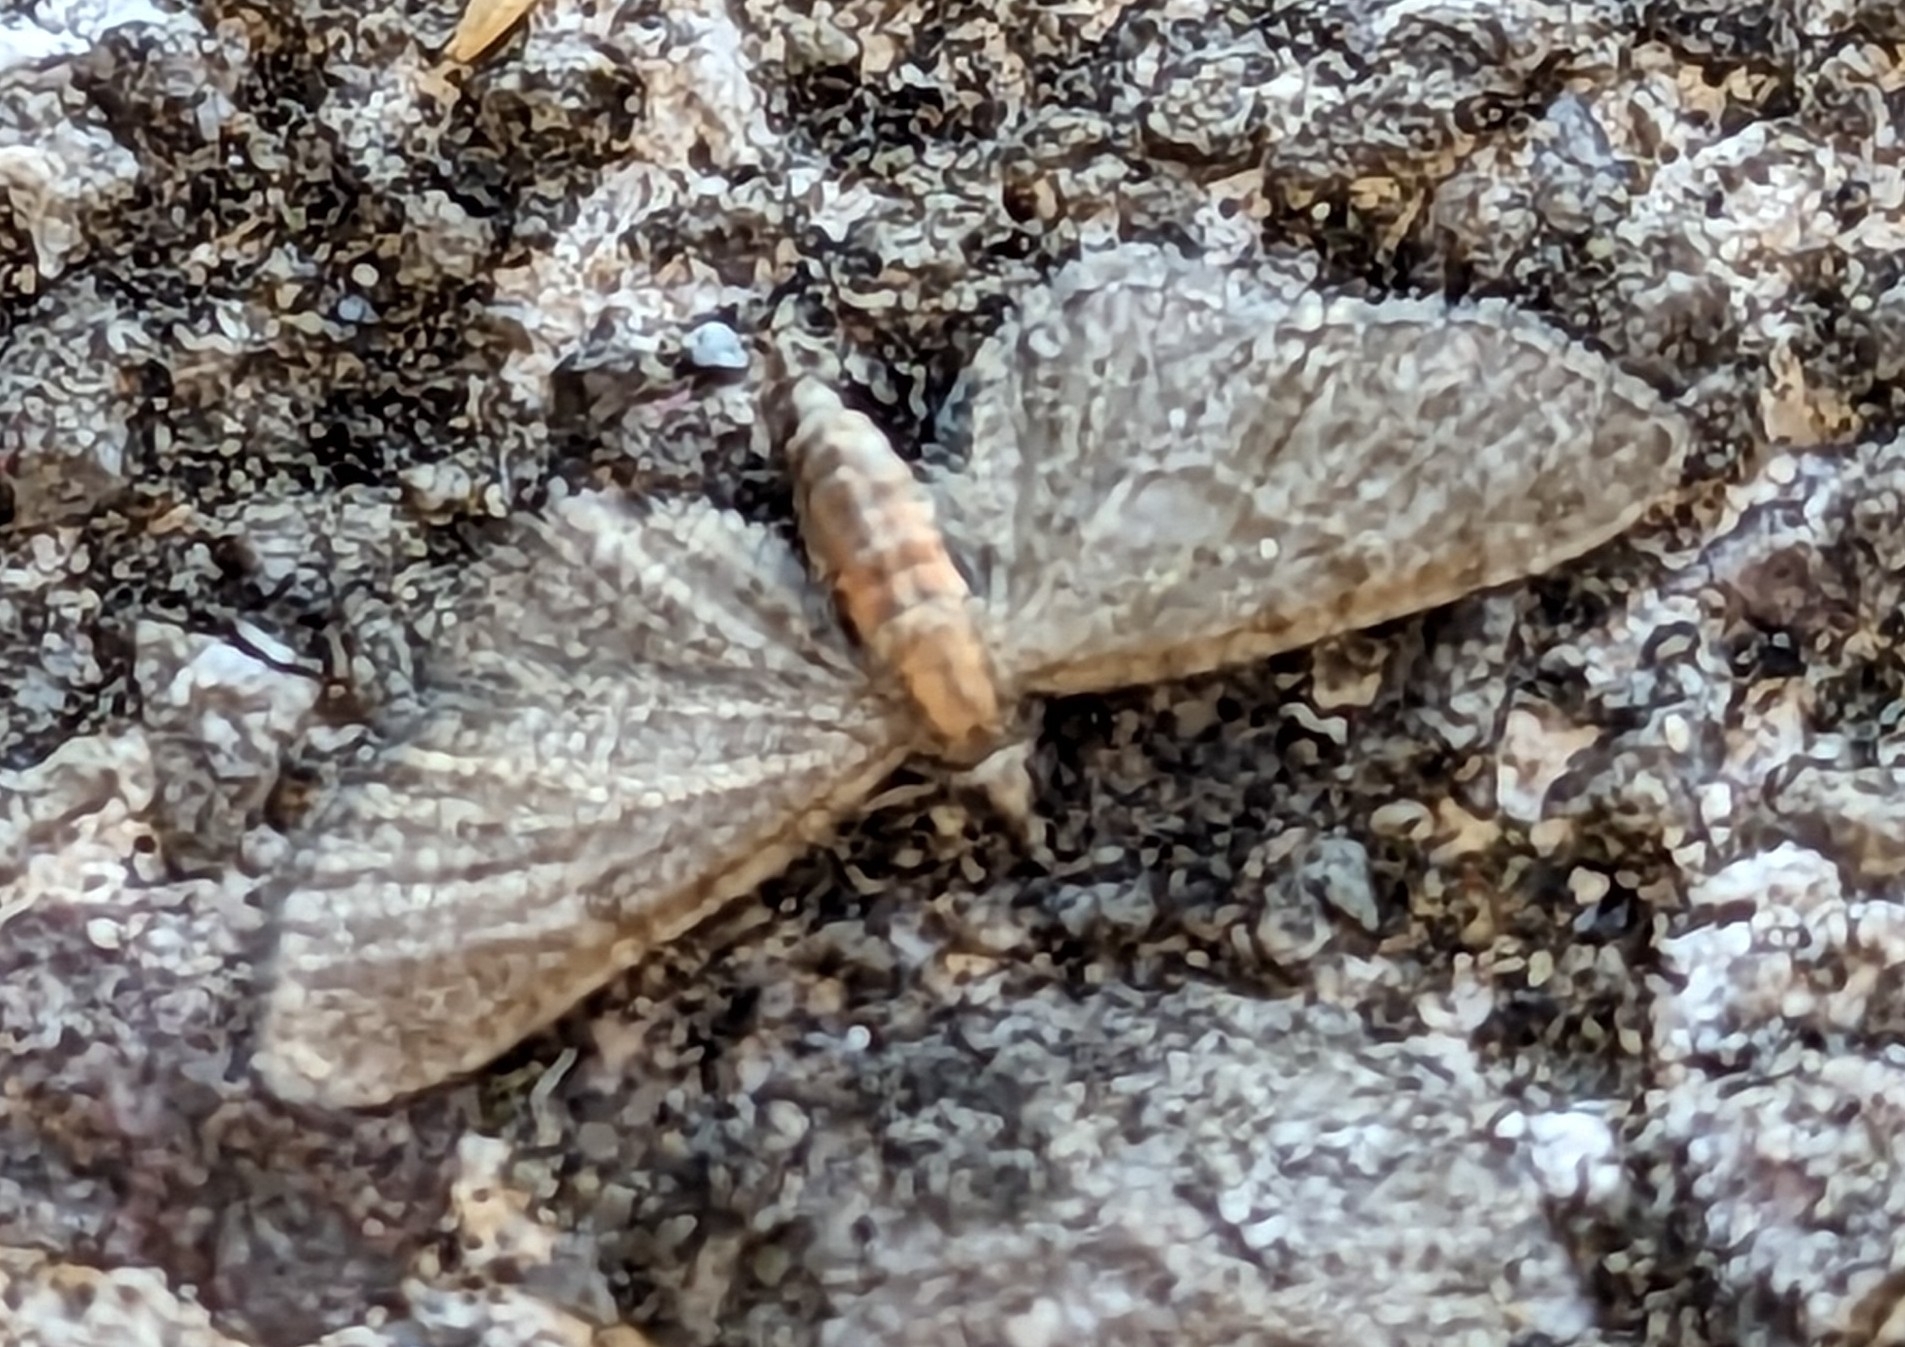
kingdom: Animalia
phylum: Arthropoda
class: Insecta
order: Lepidoptera
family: Geometridae
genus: Eupithecia
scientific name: Eupithecia haworthiata
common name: Haworth's pug
